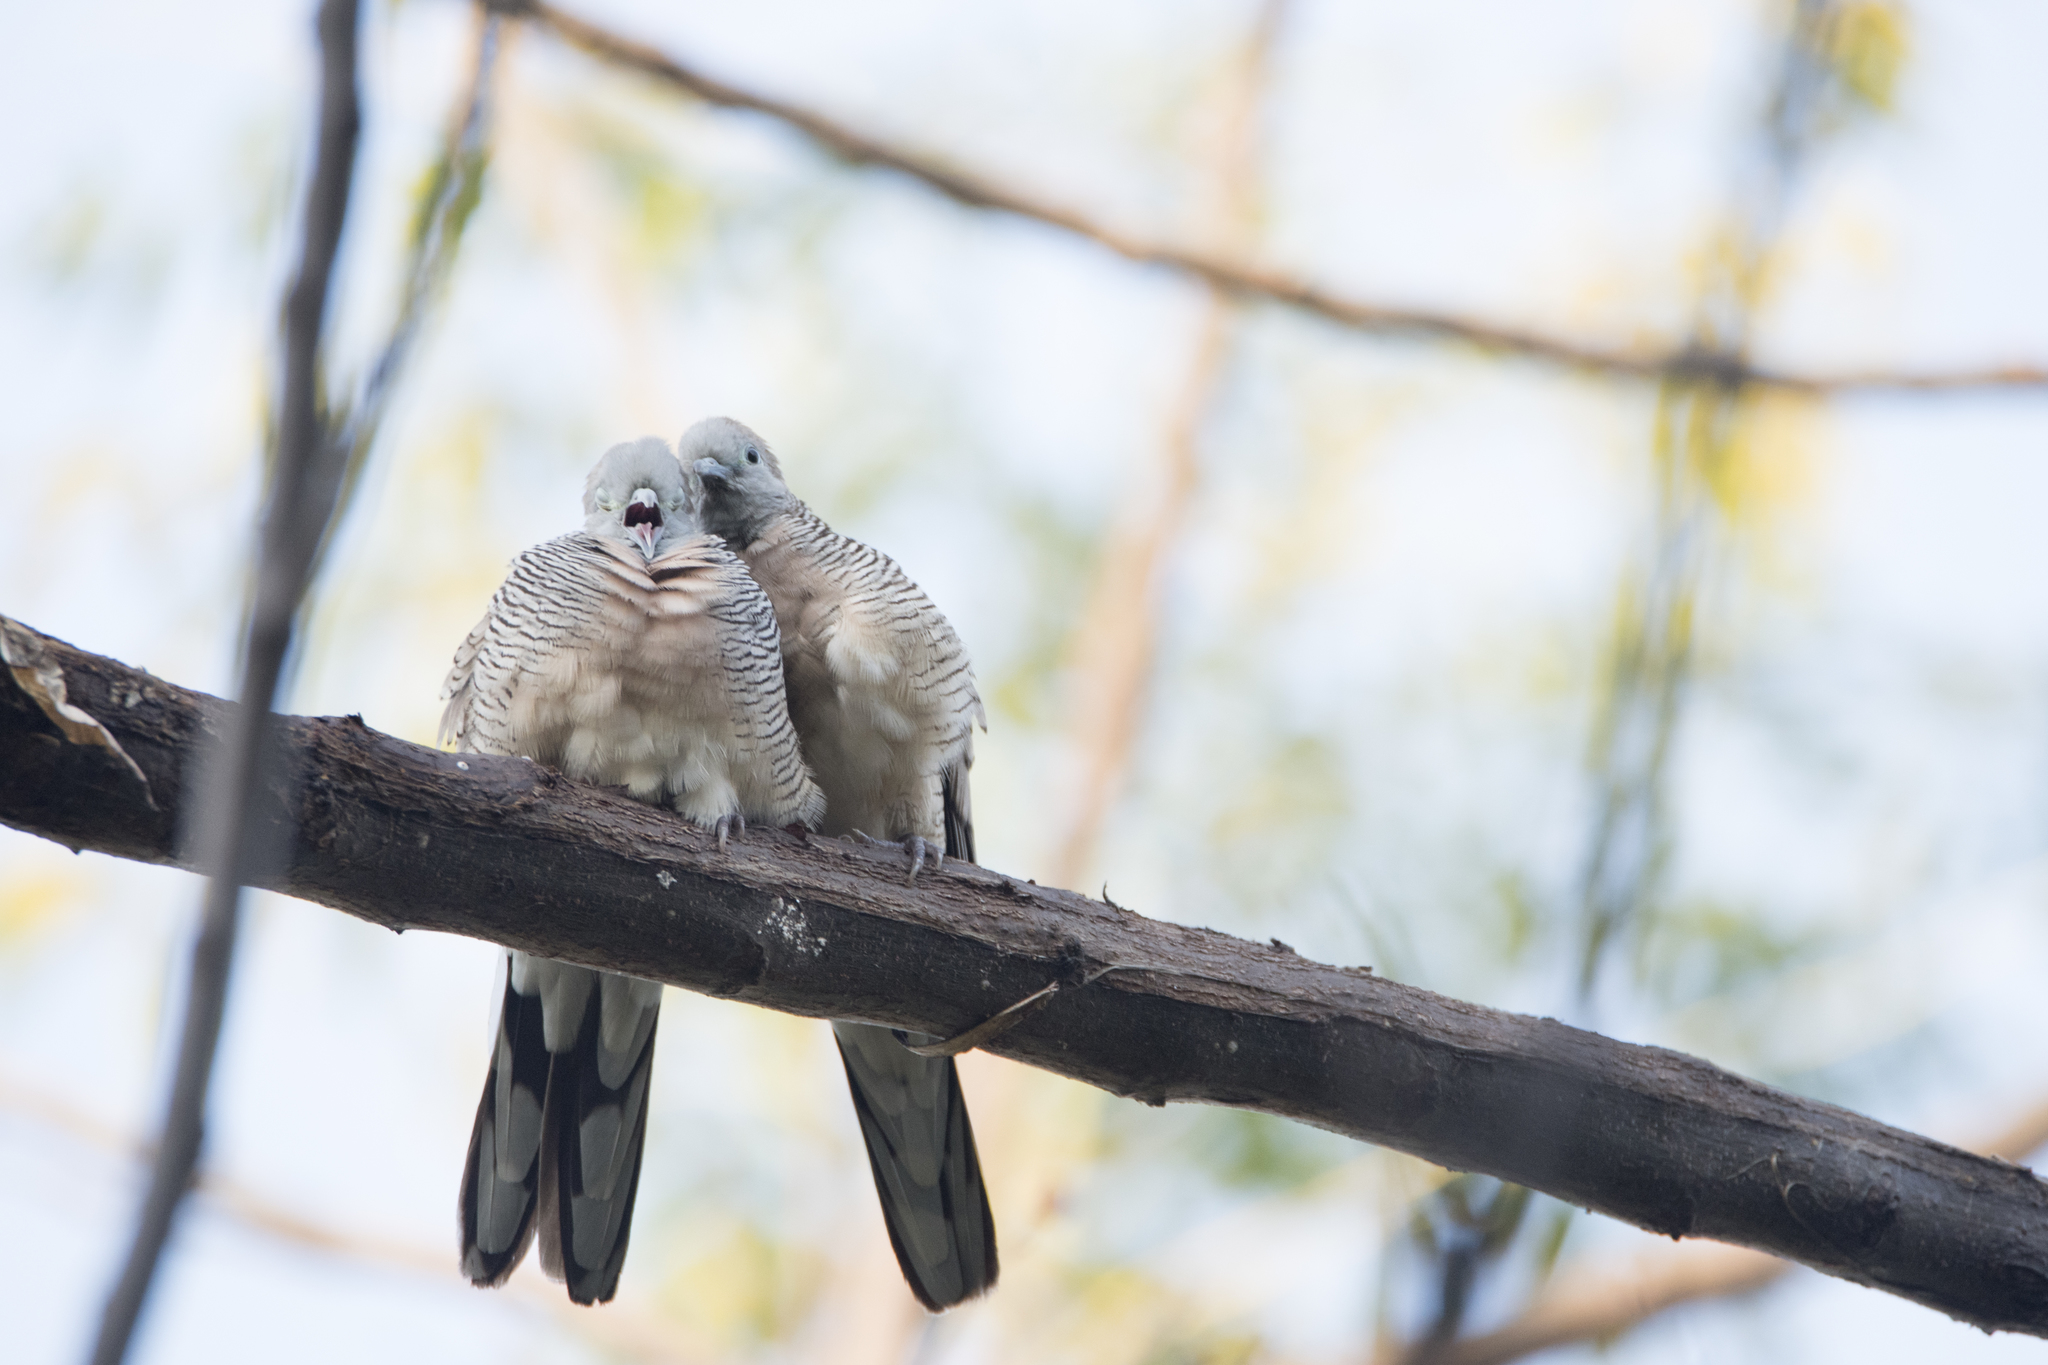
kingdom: Animalia
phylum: Chordata
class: Aves
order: Columbiformes
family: Columbidae
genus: Geopelia
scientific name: Geopelia striata
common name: Zebra dove
